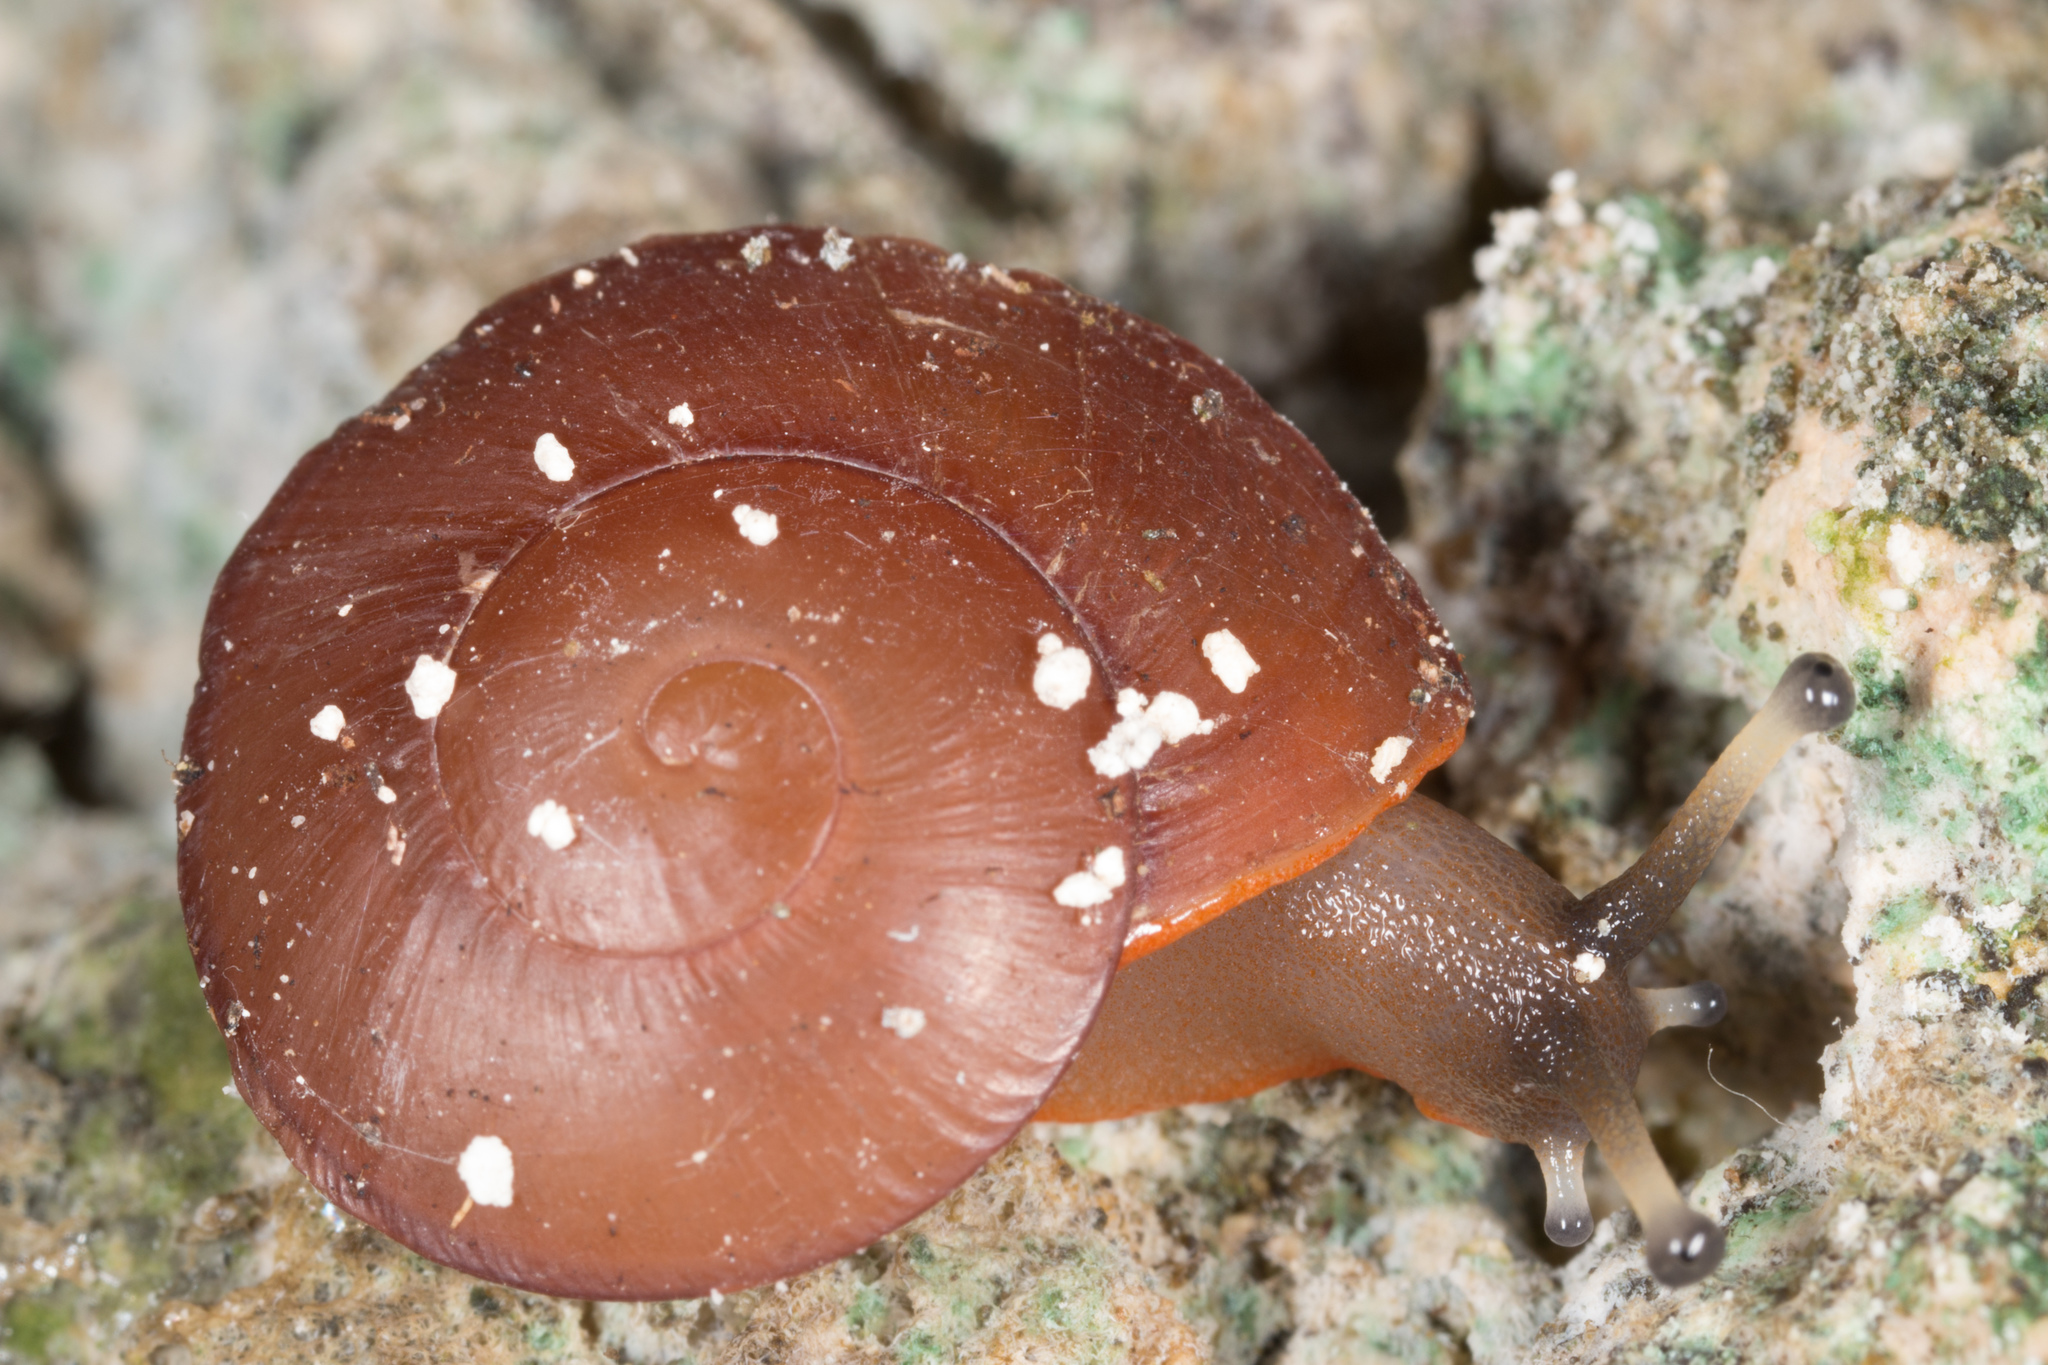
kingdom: Animalia
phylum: Mollusca
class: Gastropoda
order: Stylommatophora
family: Solaropsidae
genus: Caracolus
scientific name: Caracolus excellens
